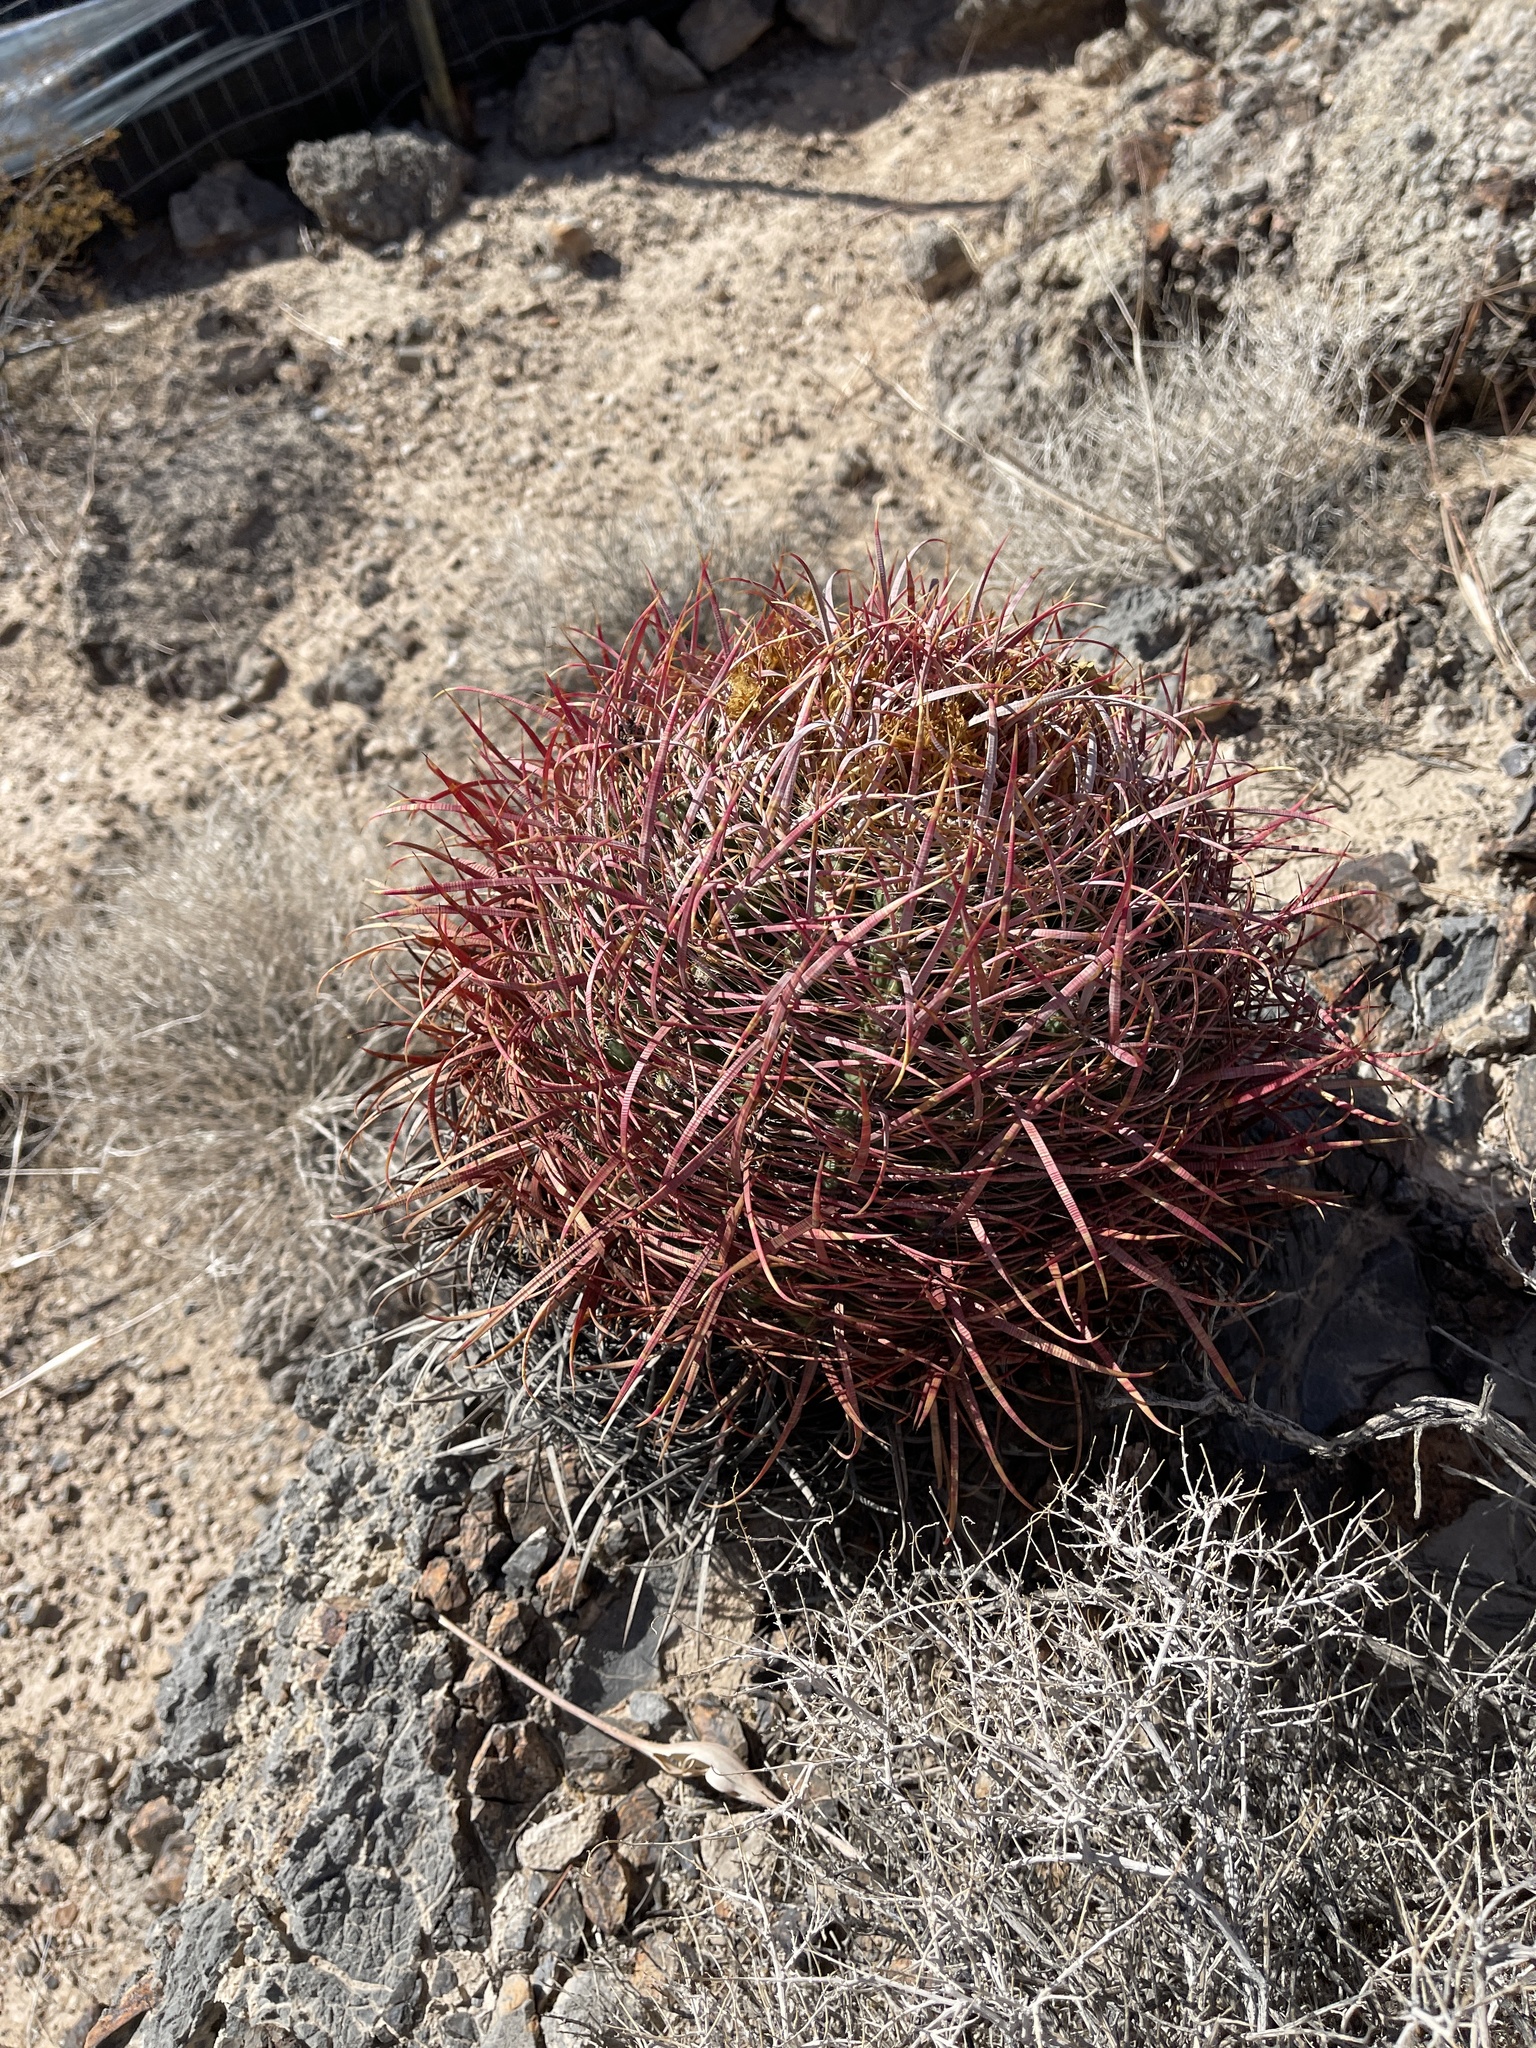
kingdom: Plantae
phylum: Tracheophyta
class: Magnoliopsida
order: Caryophyllales
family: Cactaceae
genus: Ferocactus
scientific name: Ferocactus cylindraceus
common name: California barrel cactus
